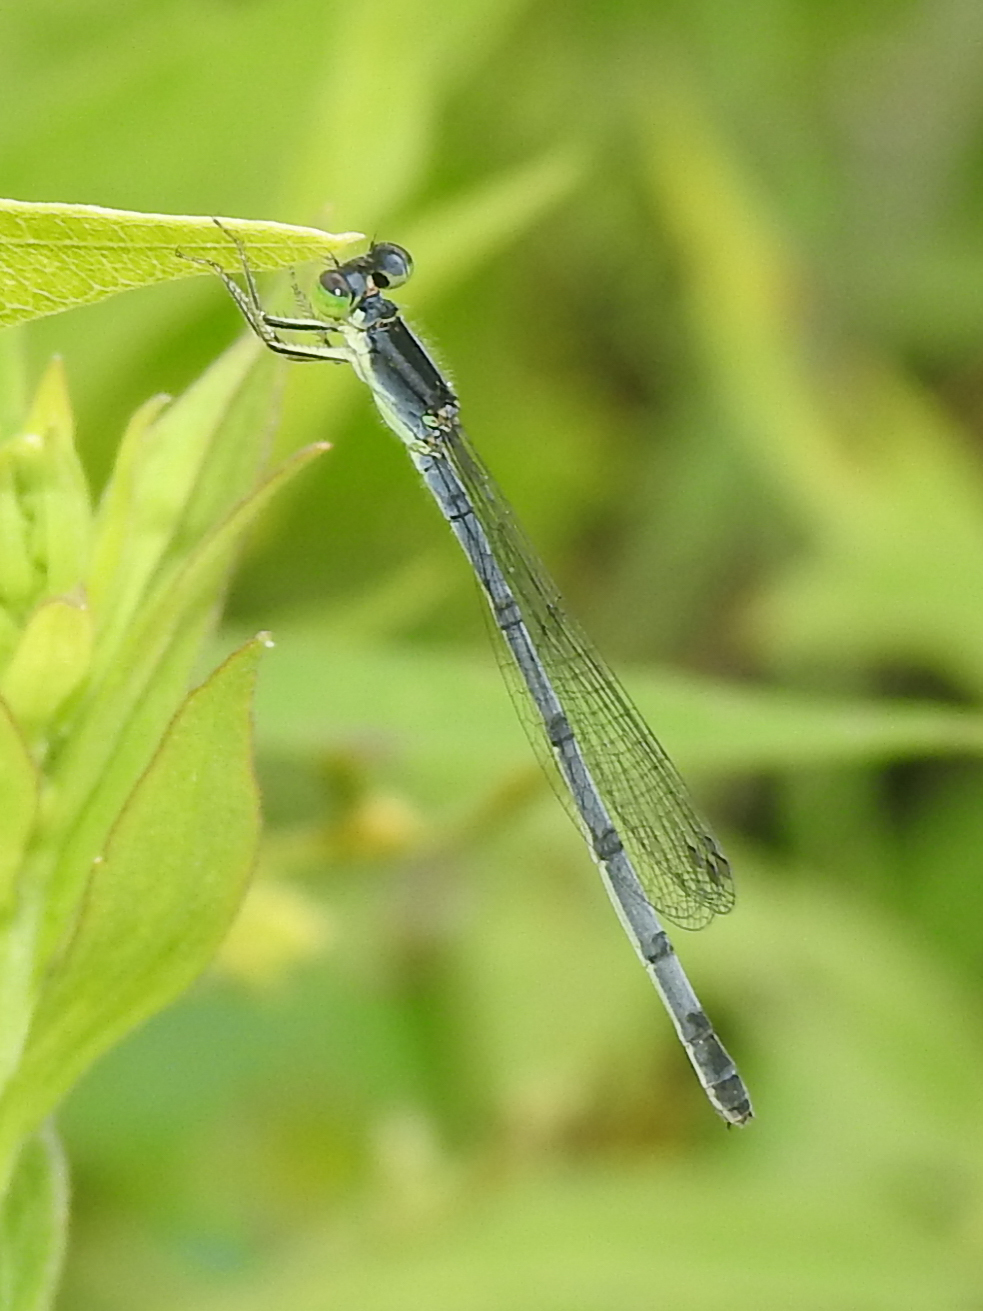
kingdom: Animalia
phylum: Arthropoda
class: Insecta
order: Odonata
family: Coenagrionidae
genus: Ischnura
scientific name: Ischnura verticalis
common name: Eastern forktail
